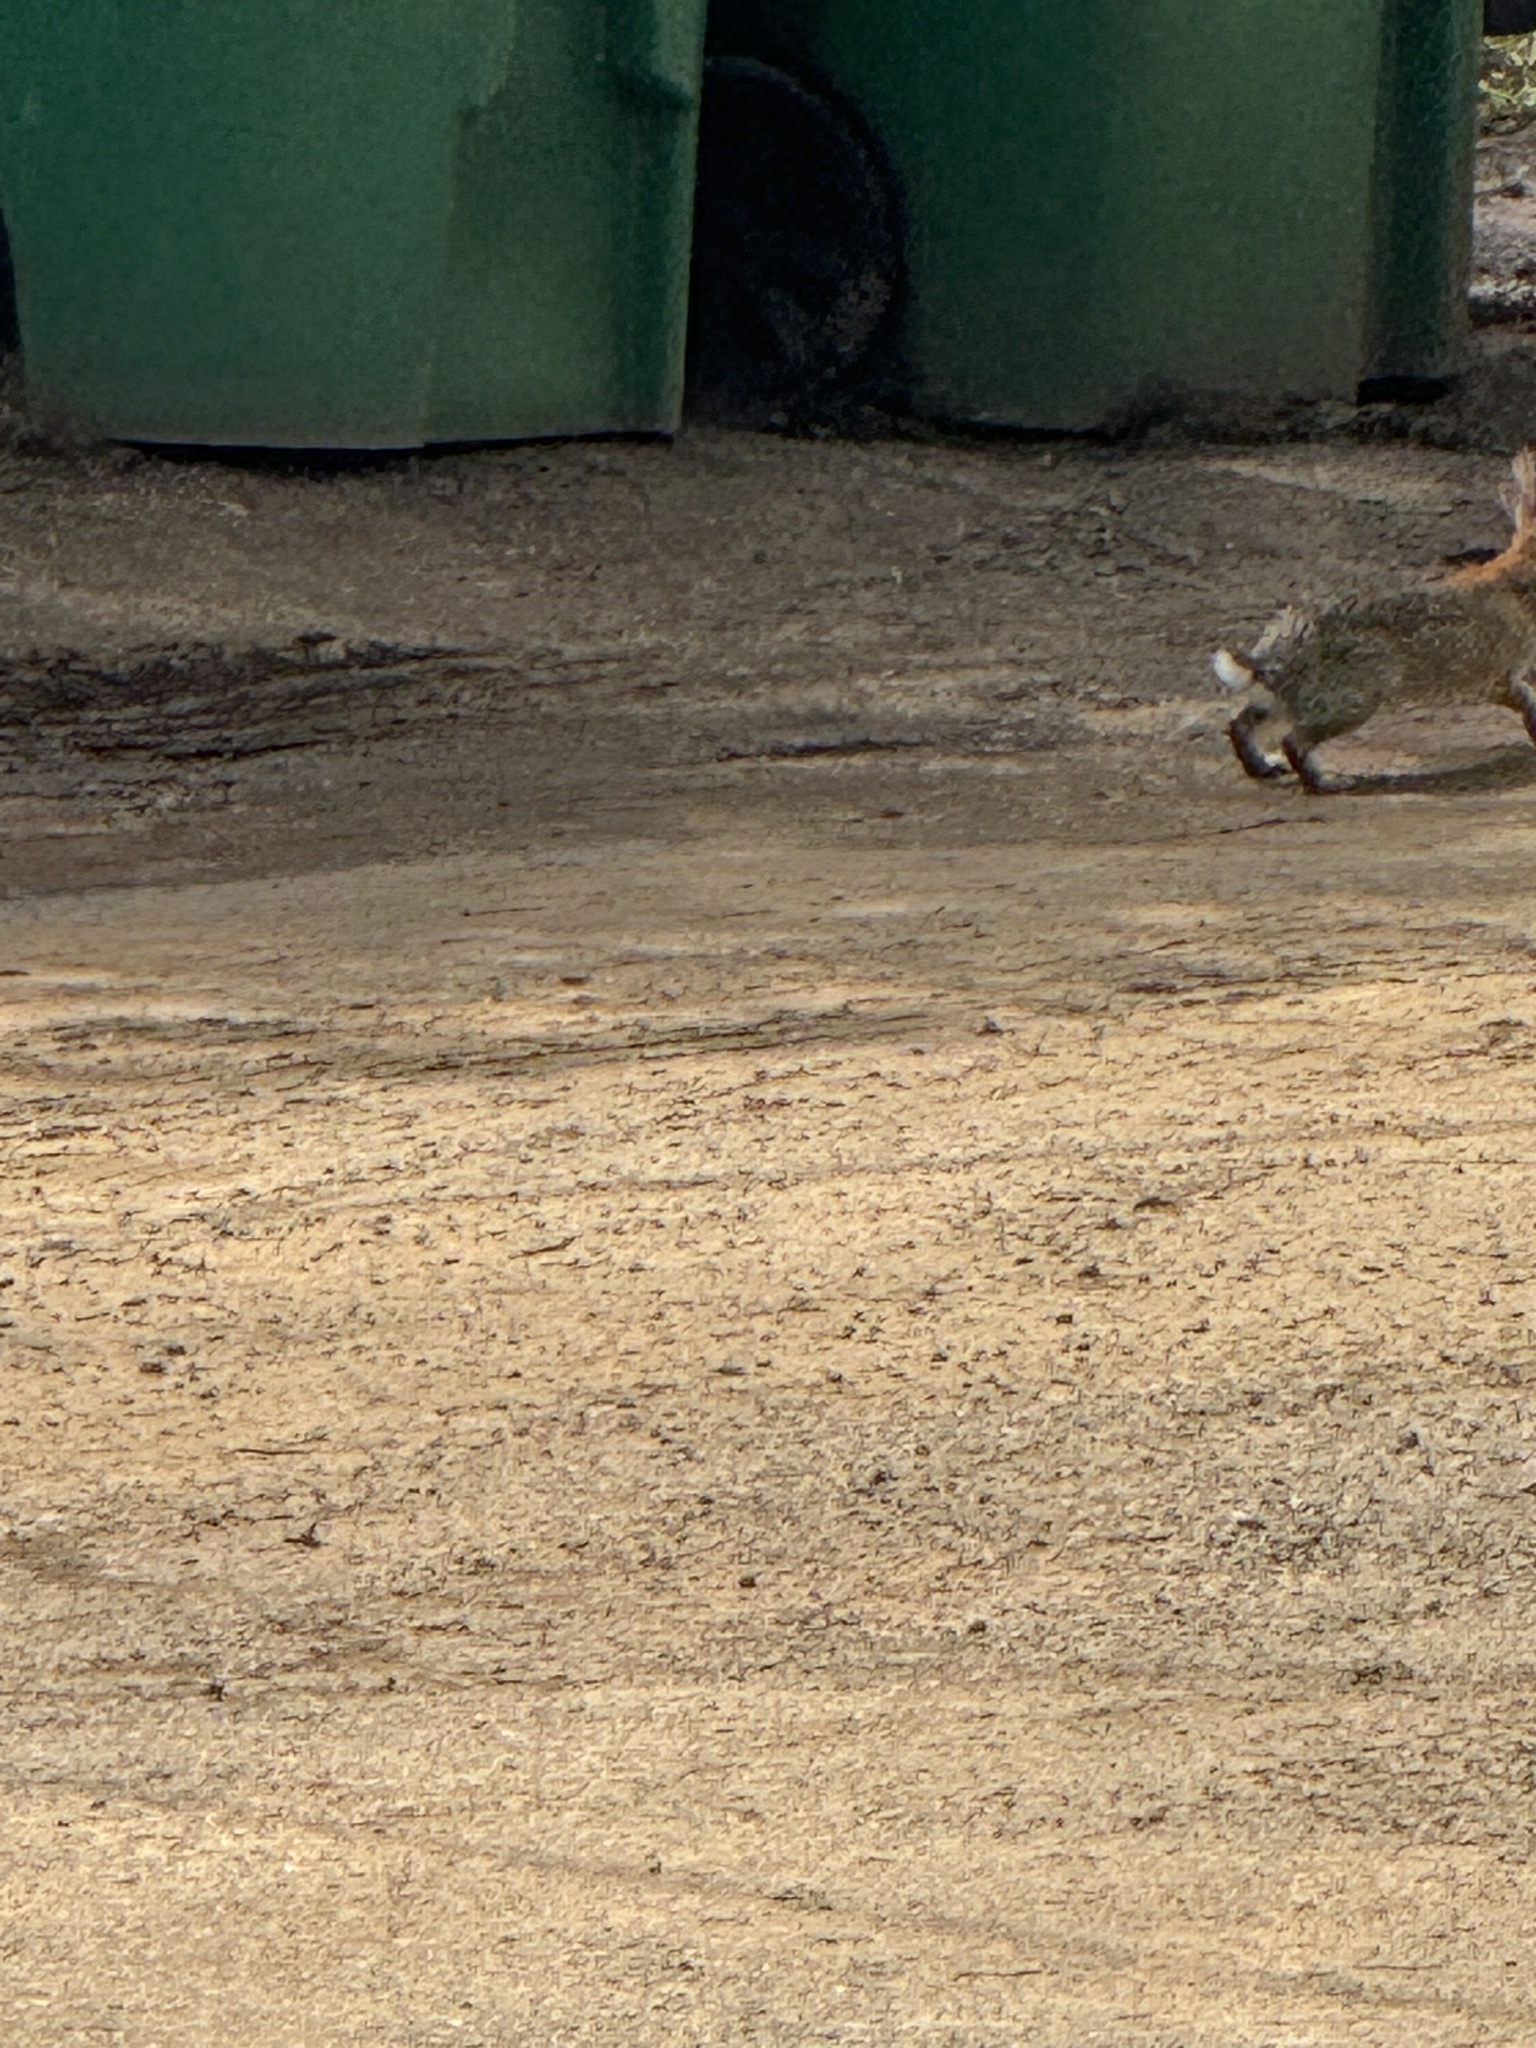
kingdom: Animalia
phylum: Chordata
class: Mammalia
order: Lagomorpha
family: Leporidae
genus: Sylvilagus
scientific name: Sylvilagus audubonii
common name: Desert cottontail
